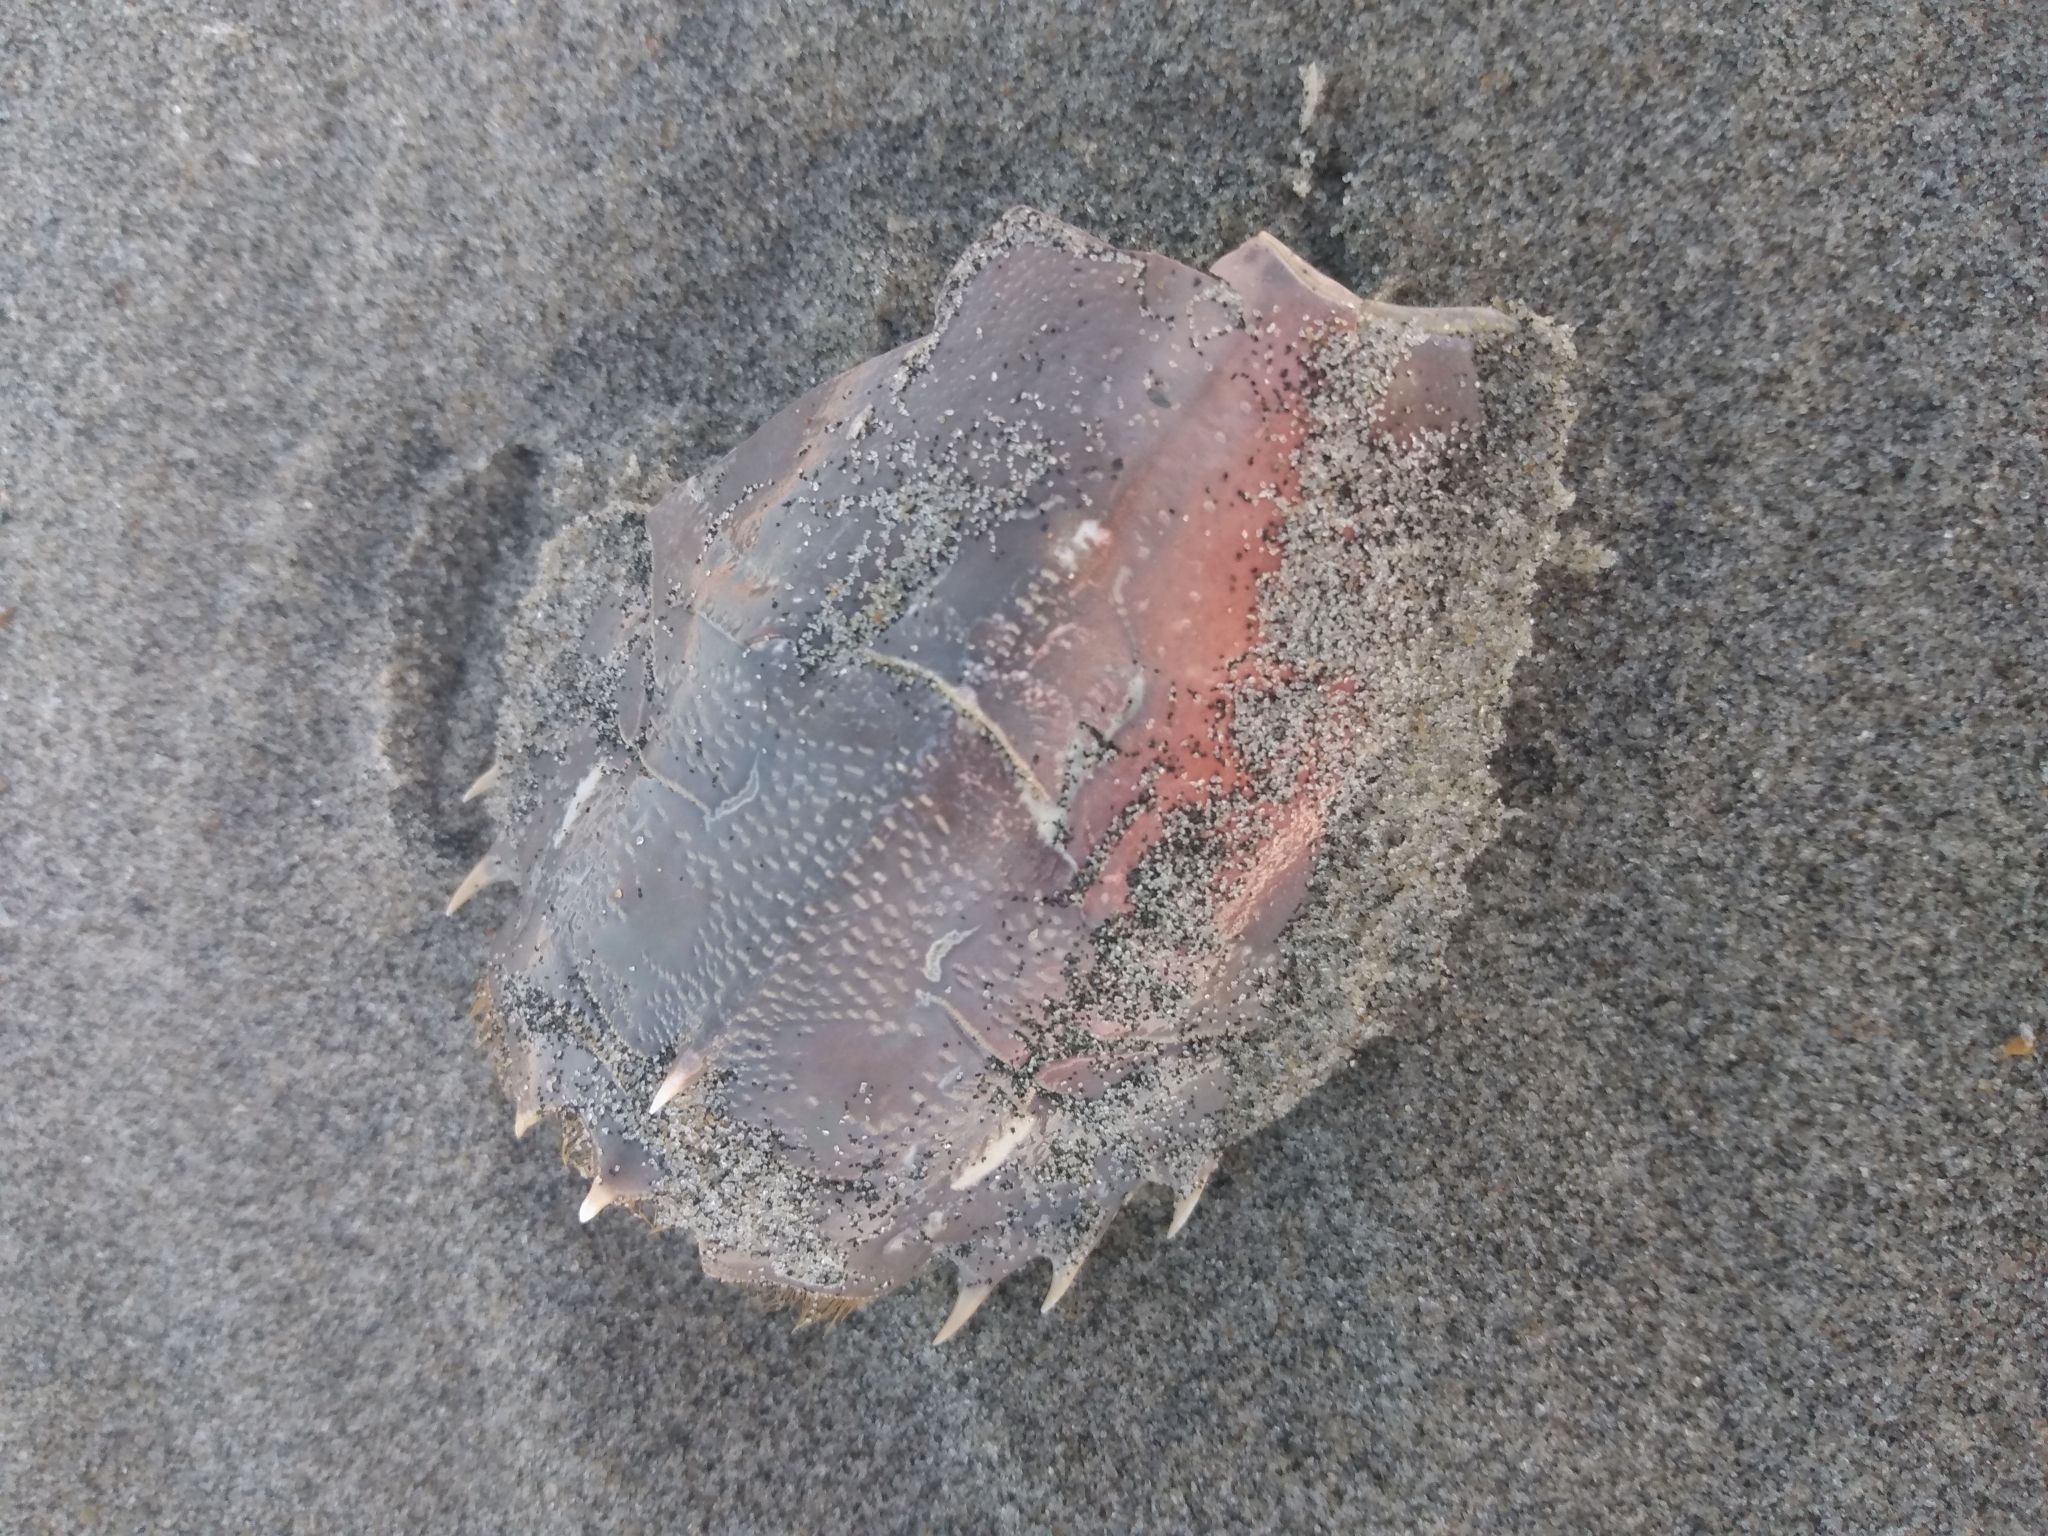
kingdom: Animalia
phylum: Arthropoda
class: Malacostraca
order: Decapoda
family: Blepharipodidae
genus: Blepharipoda
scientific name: Blepharipoda occidentalis
